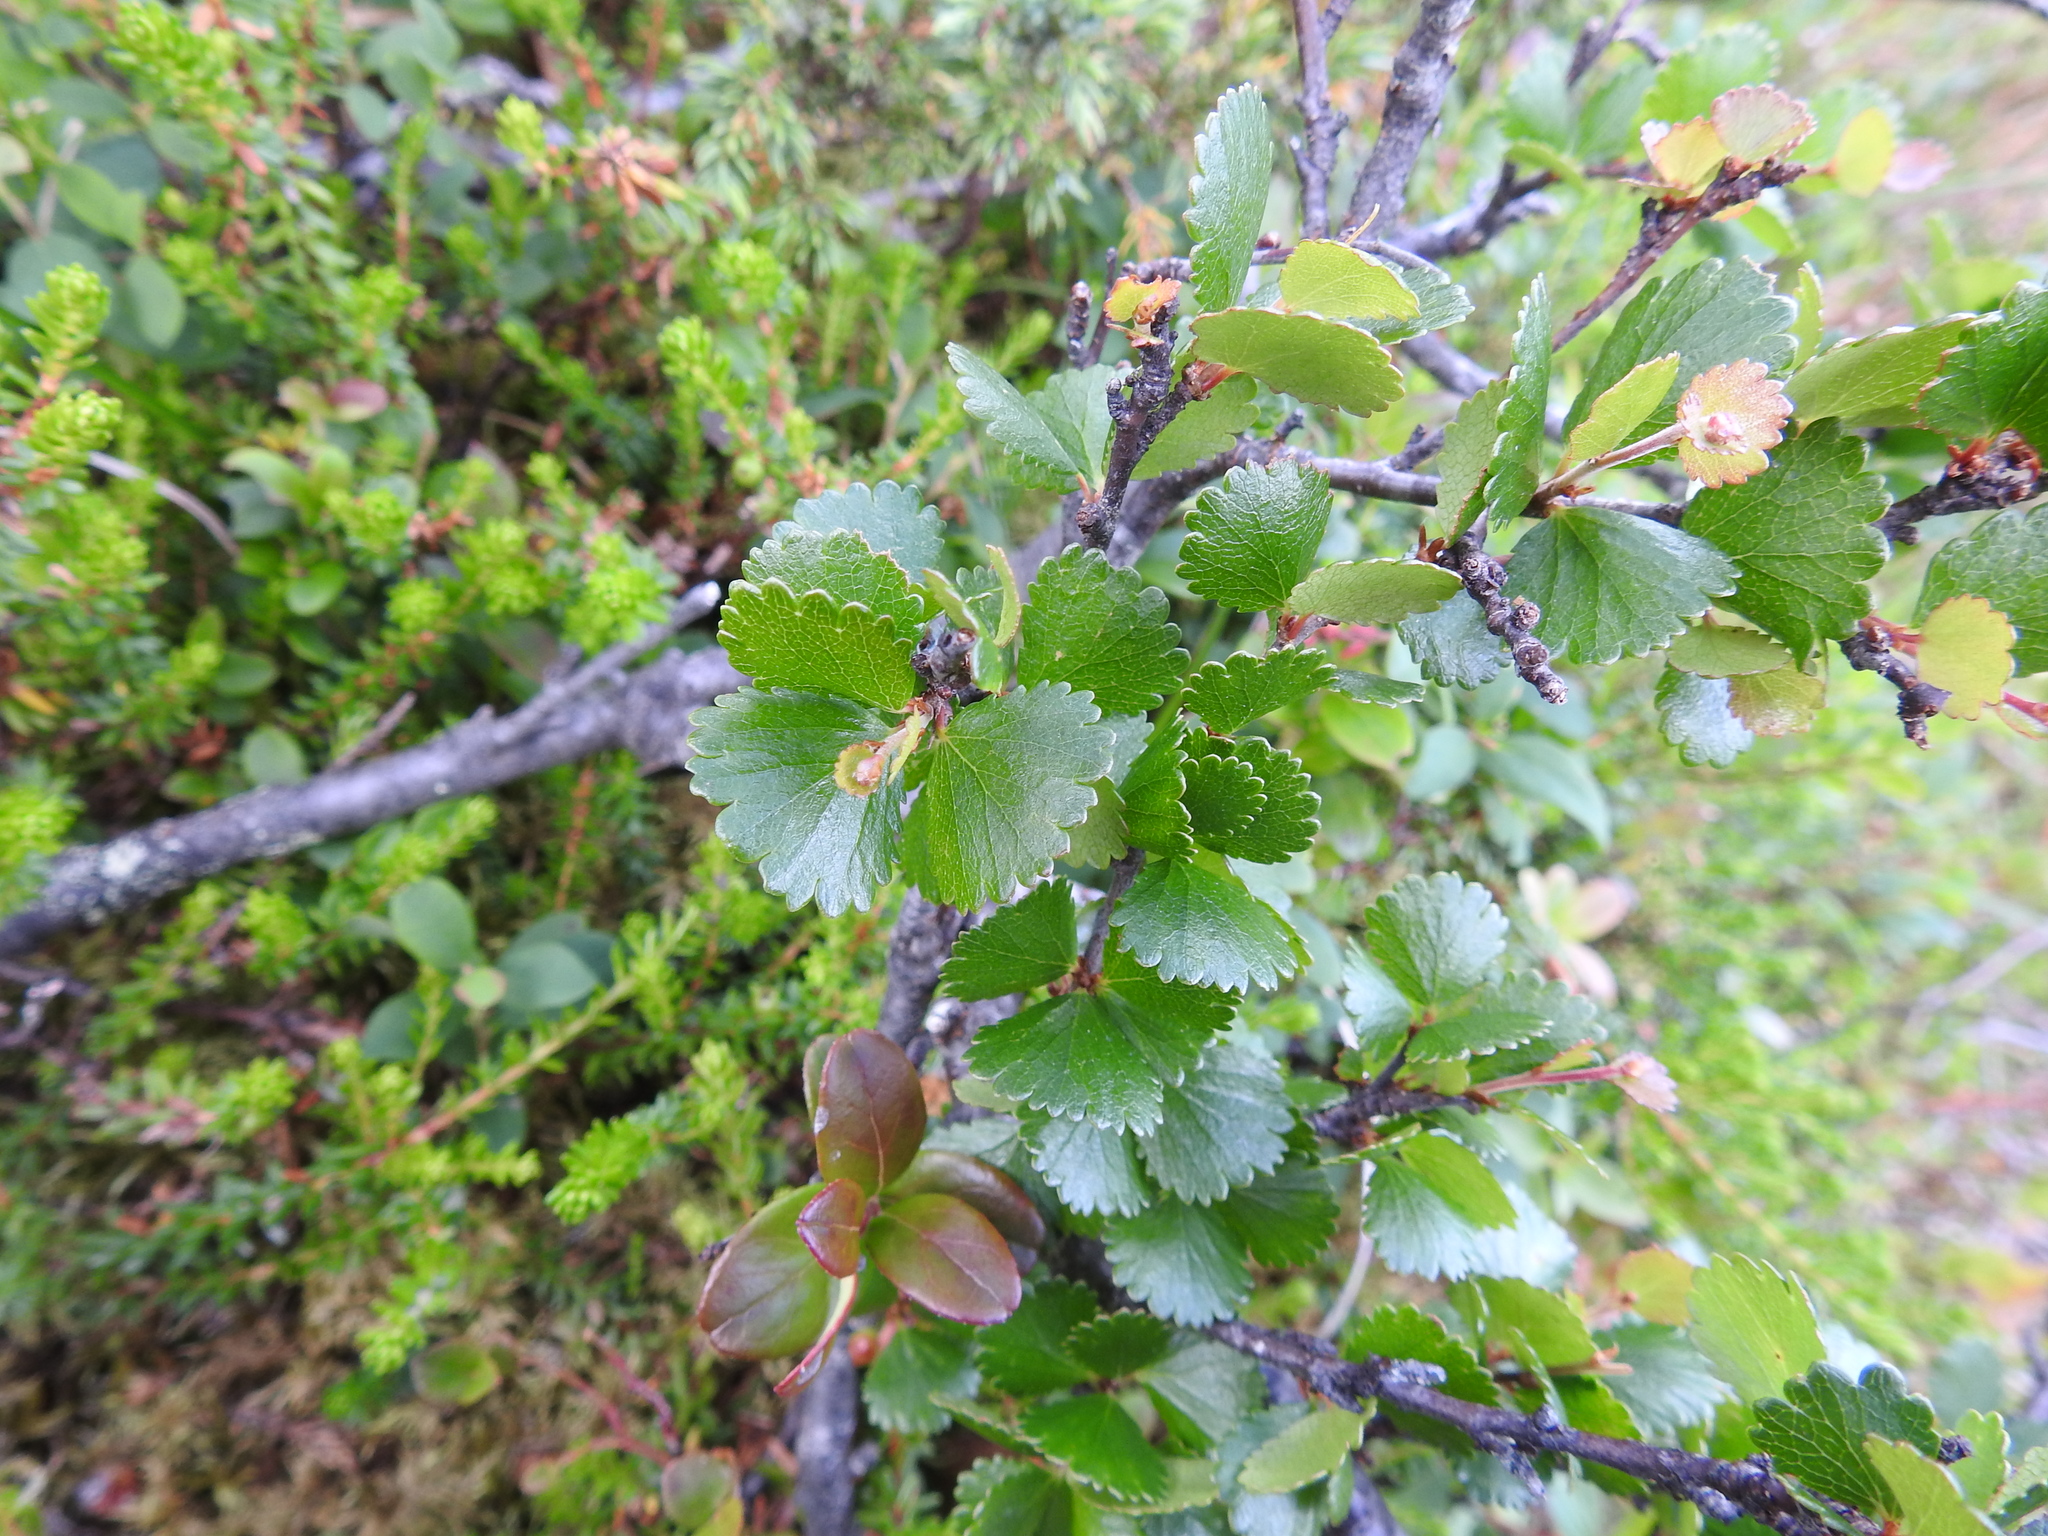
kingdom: Plantae
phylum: Tracheophyta
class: Magnoliopsida
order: Fagales
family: Betulaceae
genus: Betula
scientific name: Betula nana
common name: Arctic dwarf birch
